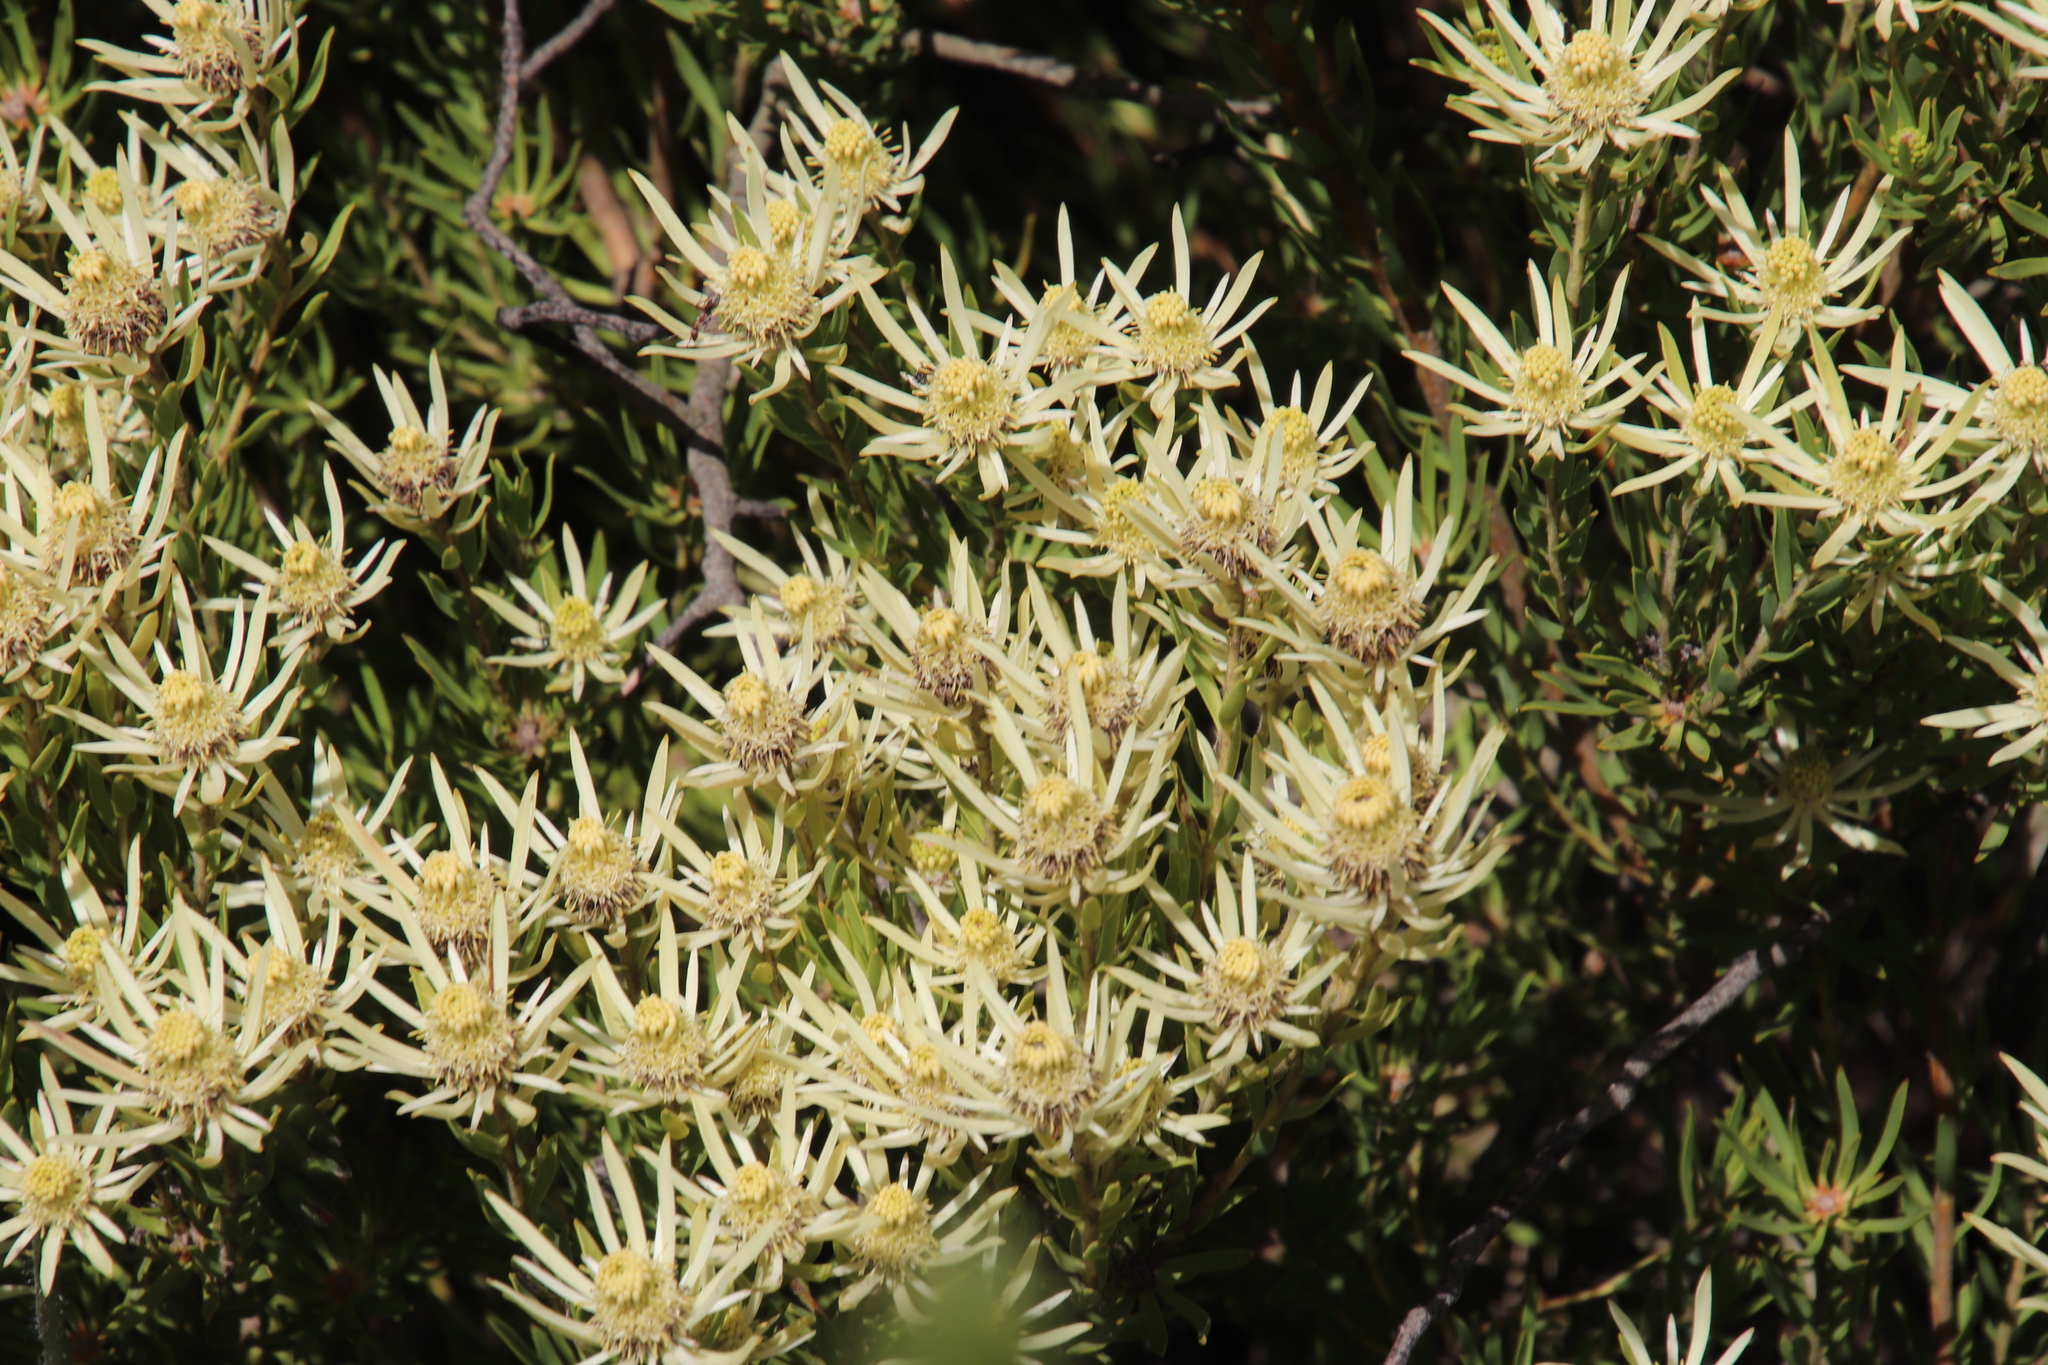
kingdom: Plantae
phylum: Tracheophyta
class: Magnoliopsida
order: Proteales
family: Proteaceae
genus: Leucadendron
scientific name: Leucadendron lanigerum
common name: Shale conebush
